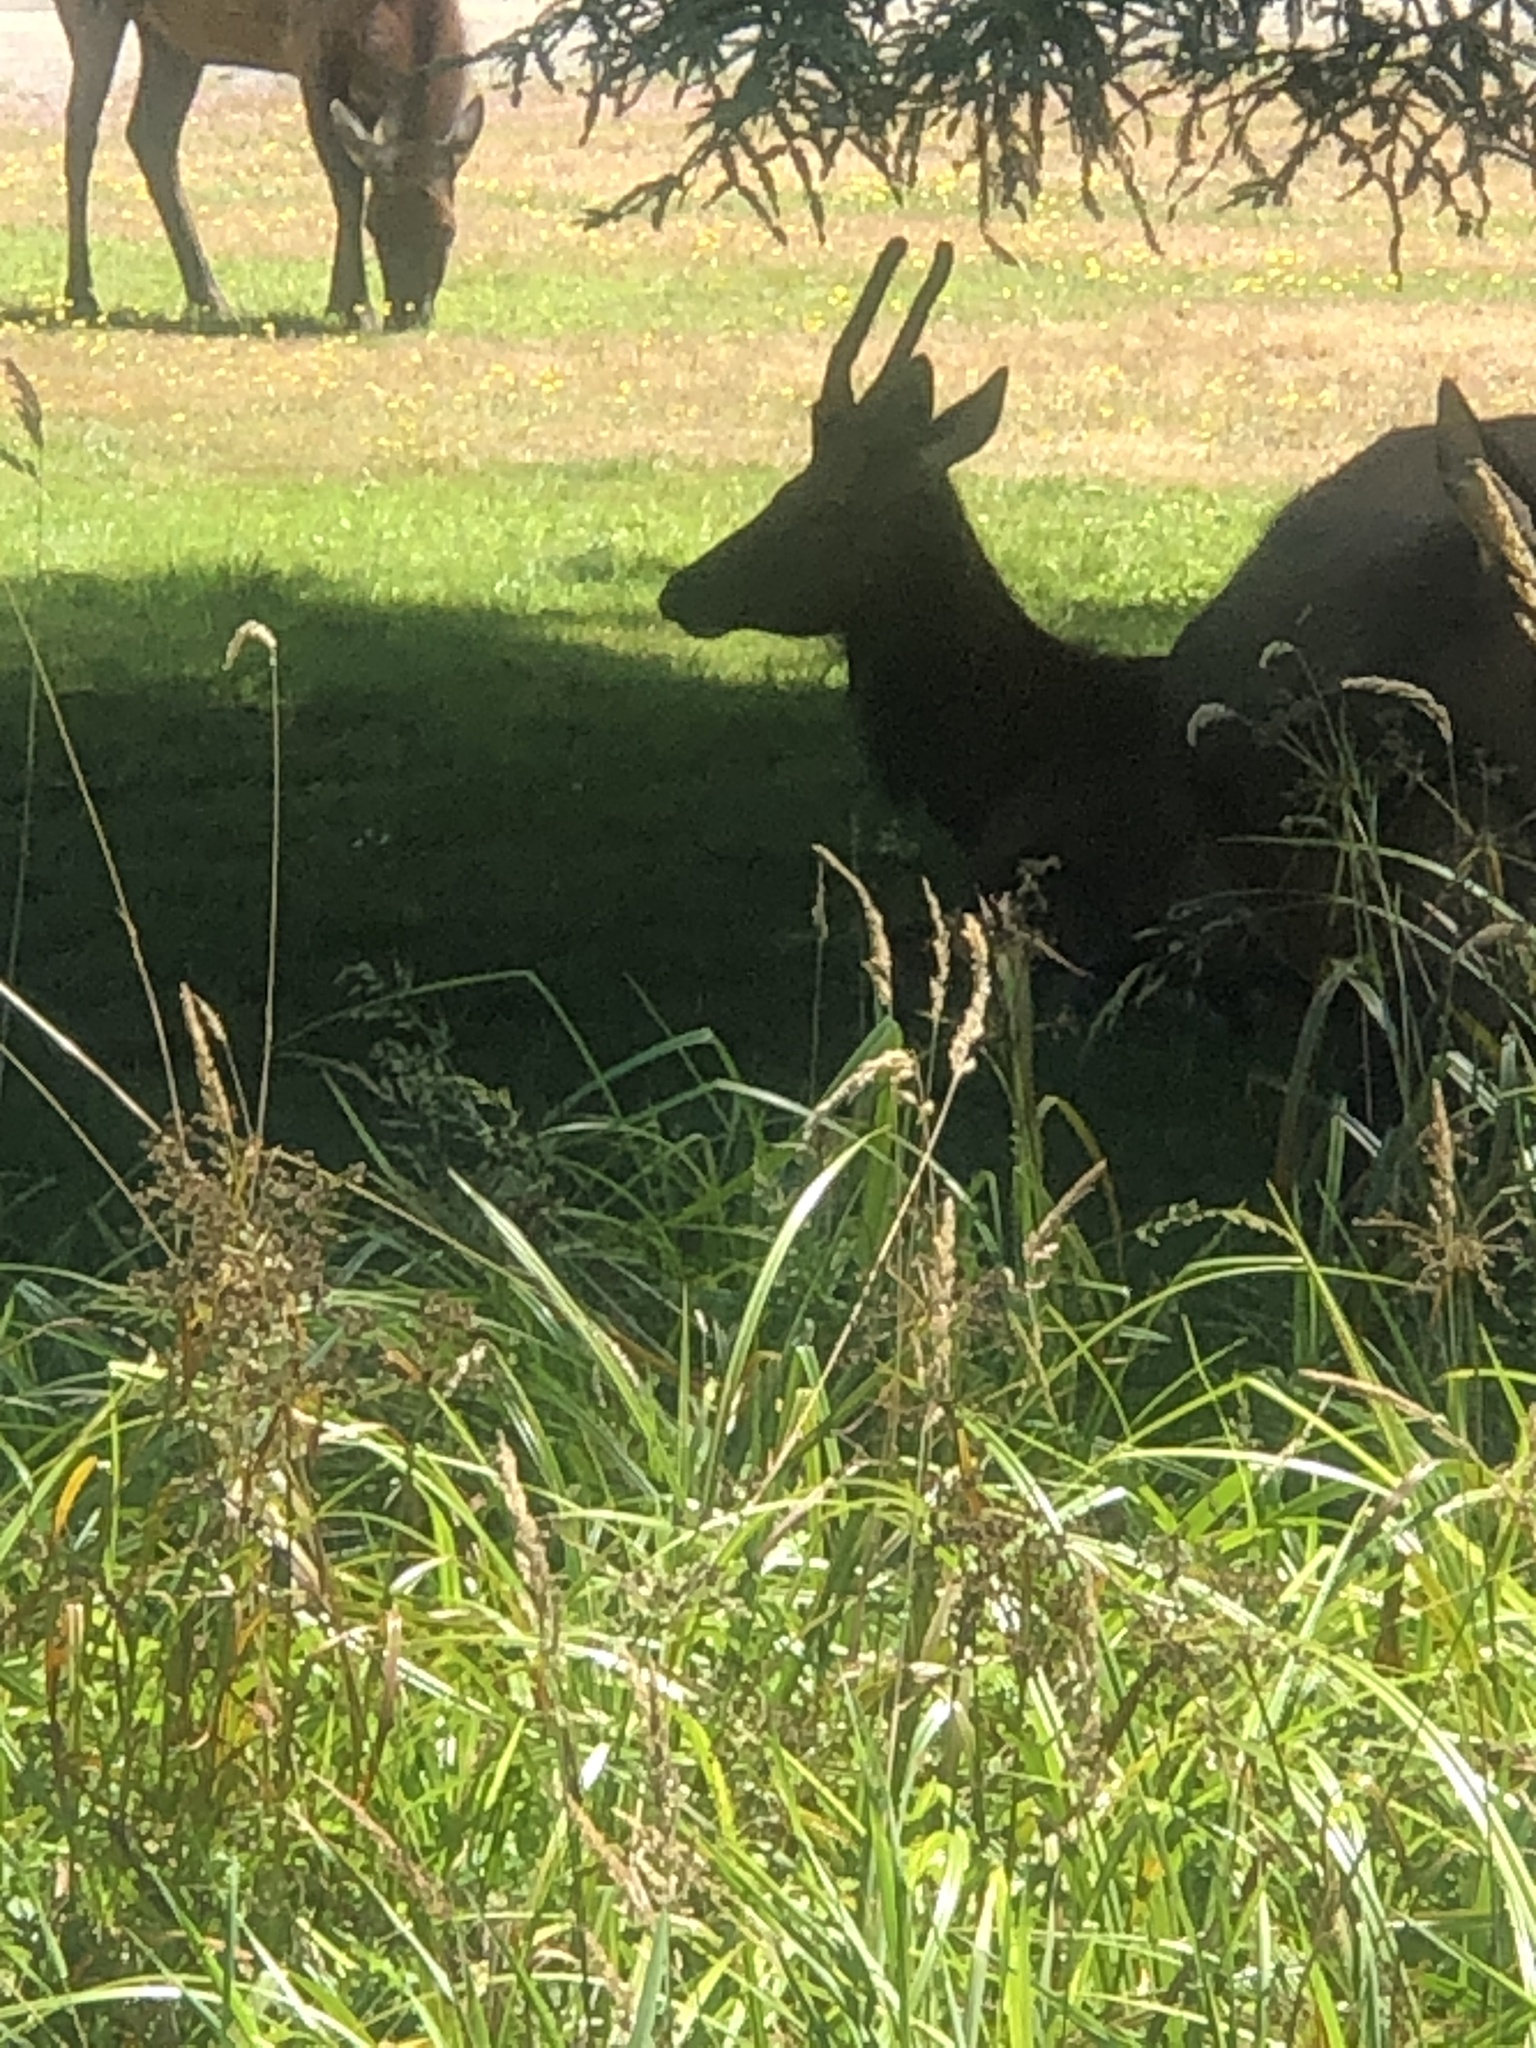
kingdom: Animalia
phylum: Chordata
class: Mammalia
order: Artiodactyla
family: Cervidae
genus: Cervus
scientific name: Cervus elaphus
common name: Red deer
